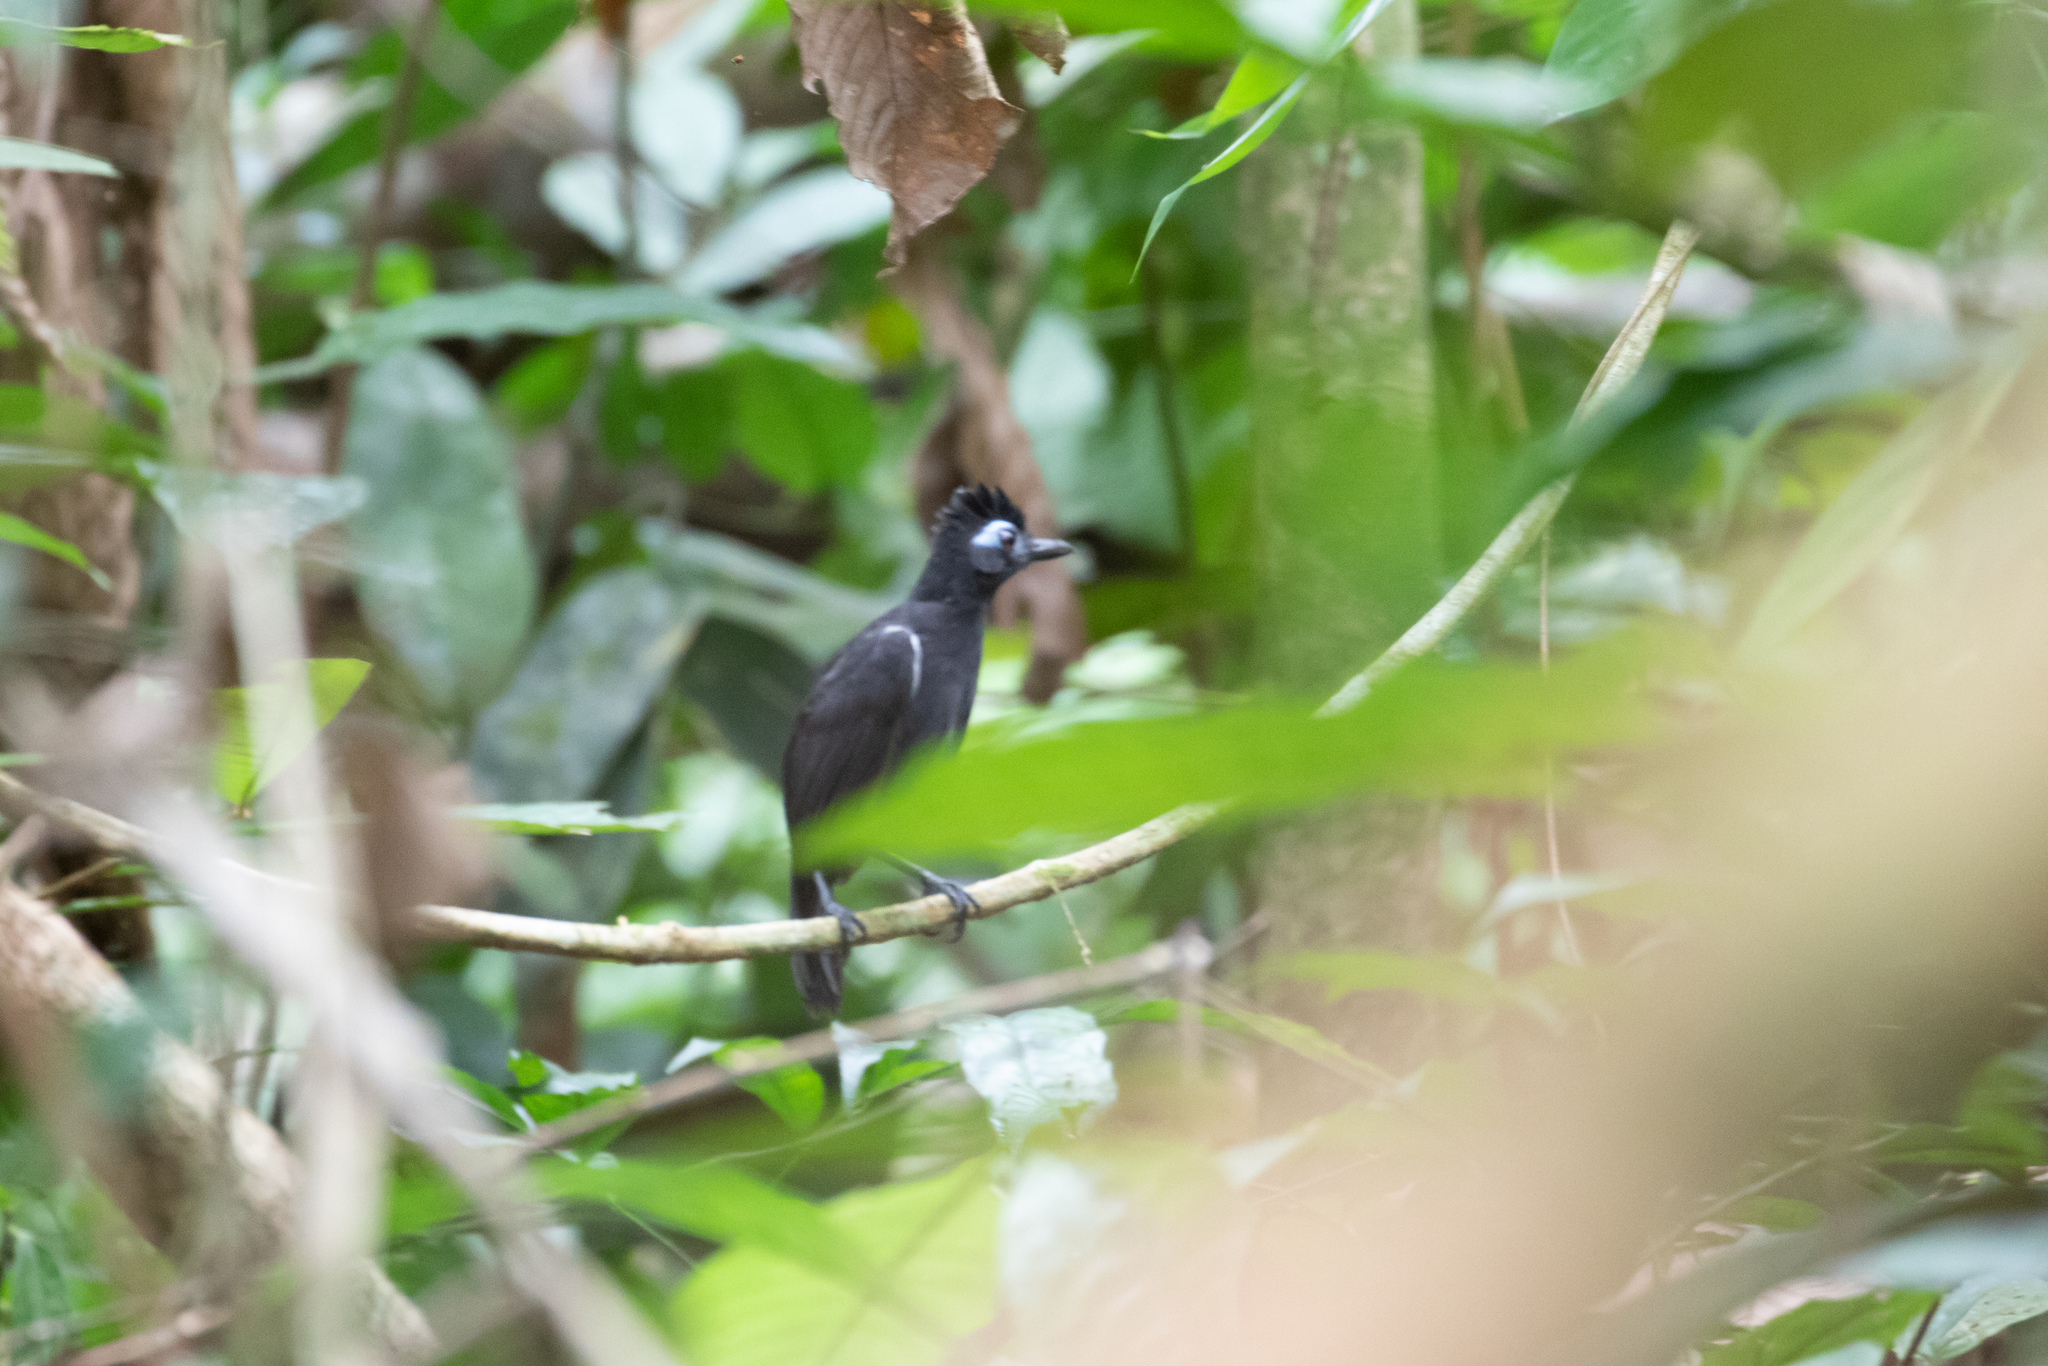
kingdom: Animalia
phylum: Chordata
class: Aves
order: Passeriformes
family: Thamnophilidae
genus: Myrmeciza
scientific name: Myrmeciza fortis
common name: Sooty antbird
